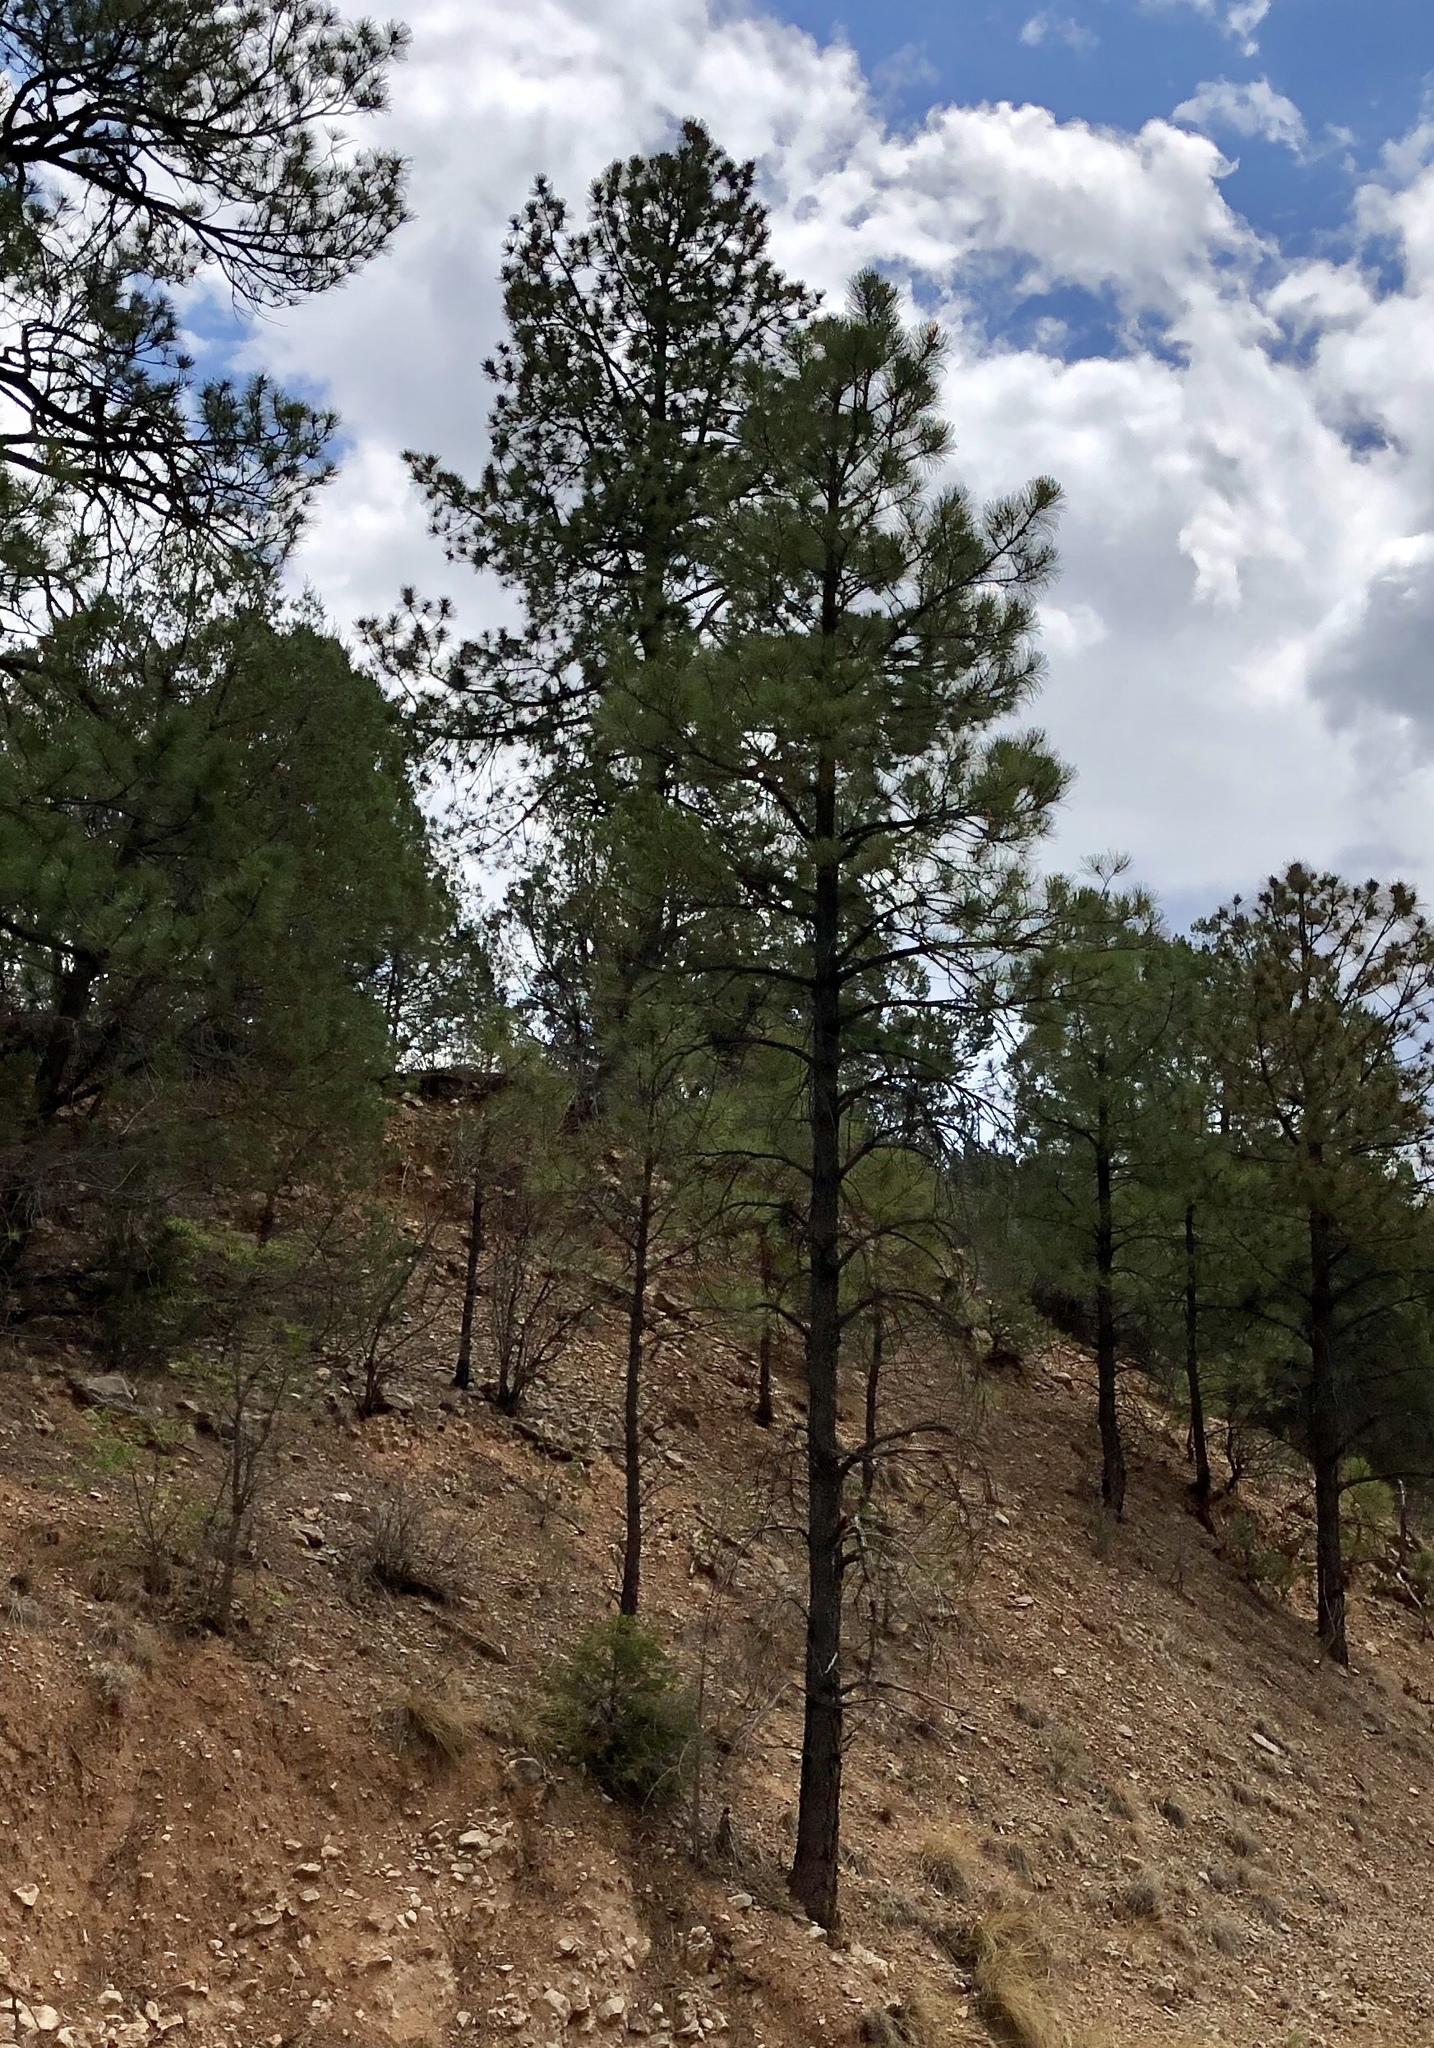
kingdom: Plantae
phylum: Tracheophyta
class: Pinopsida
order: Pinales
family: Pinaceae
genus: Pinus
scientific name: Pinus ponderosa
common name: Western yellow-pine
